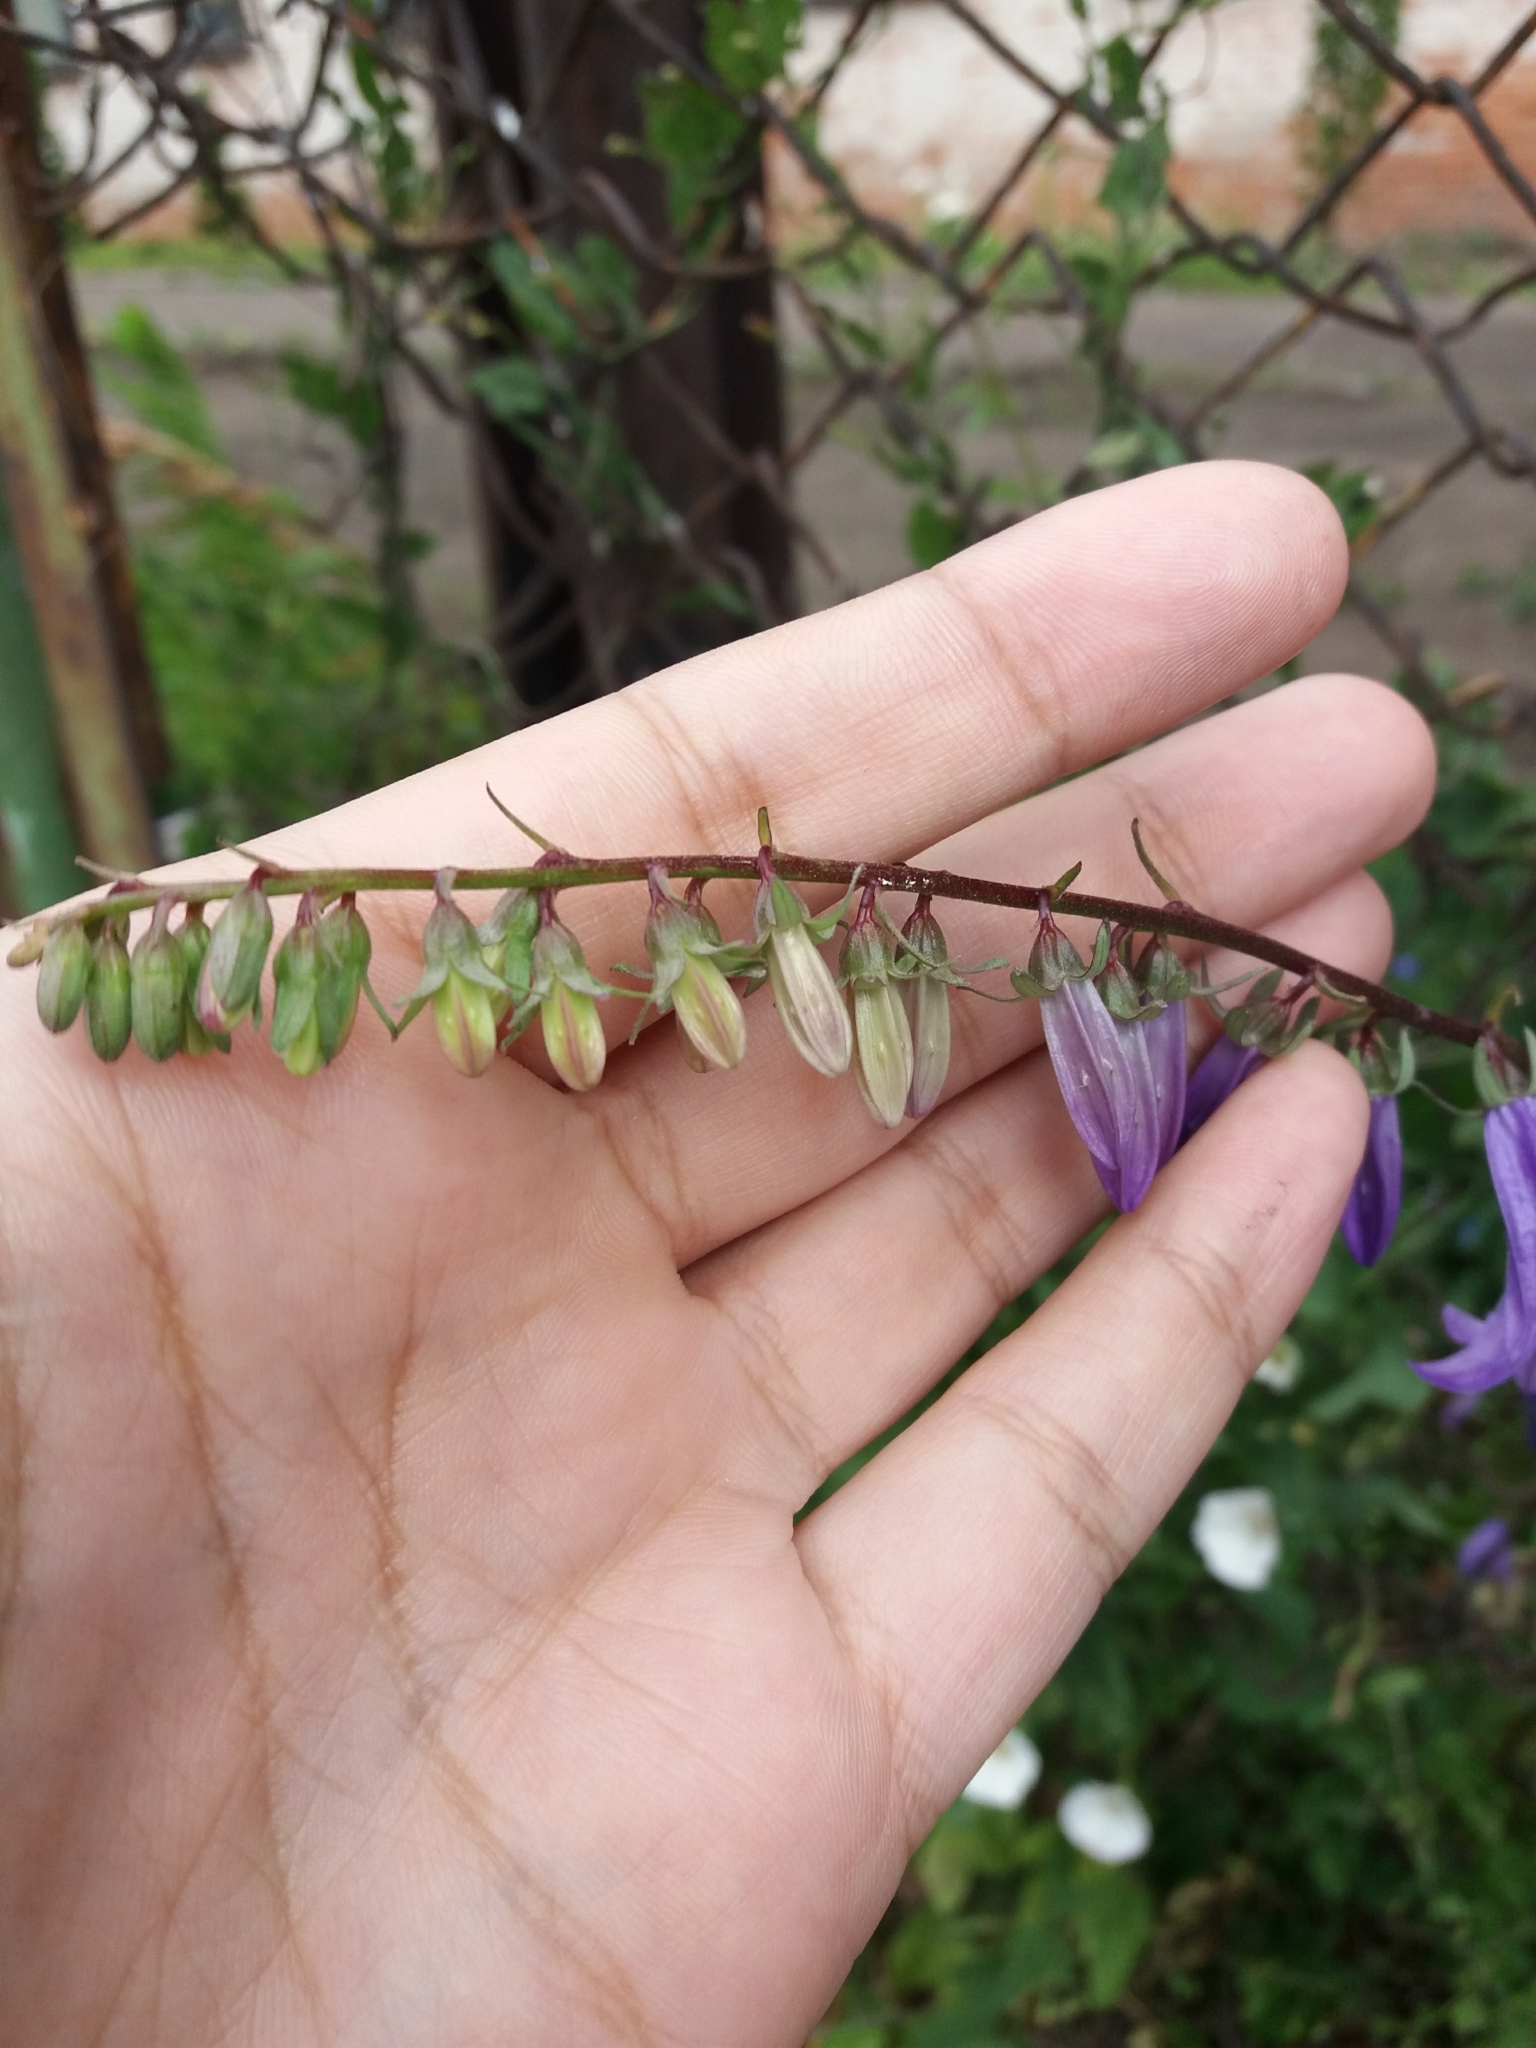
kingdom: Plantae
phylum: Tracheophyta
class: Magnoliopsida
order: Asterales
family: Campanulaceae
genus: Campanula
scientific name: Campanula rapunculoides
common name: Creeping bellflower
